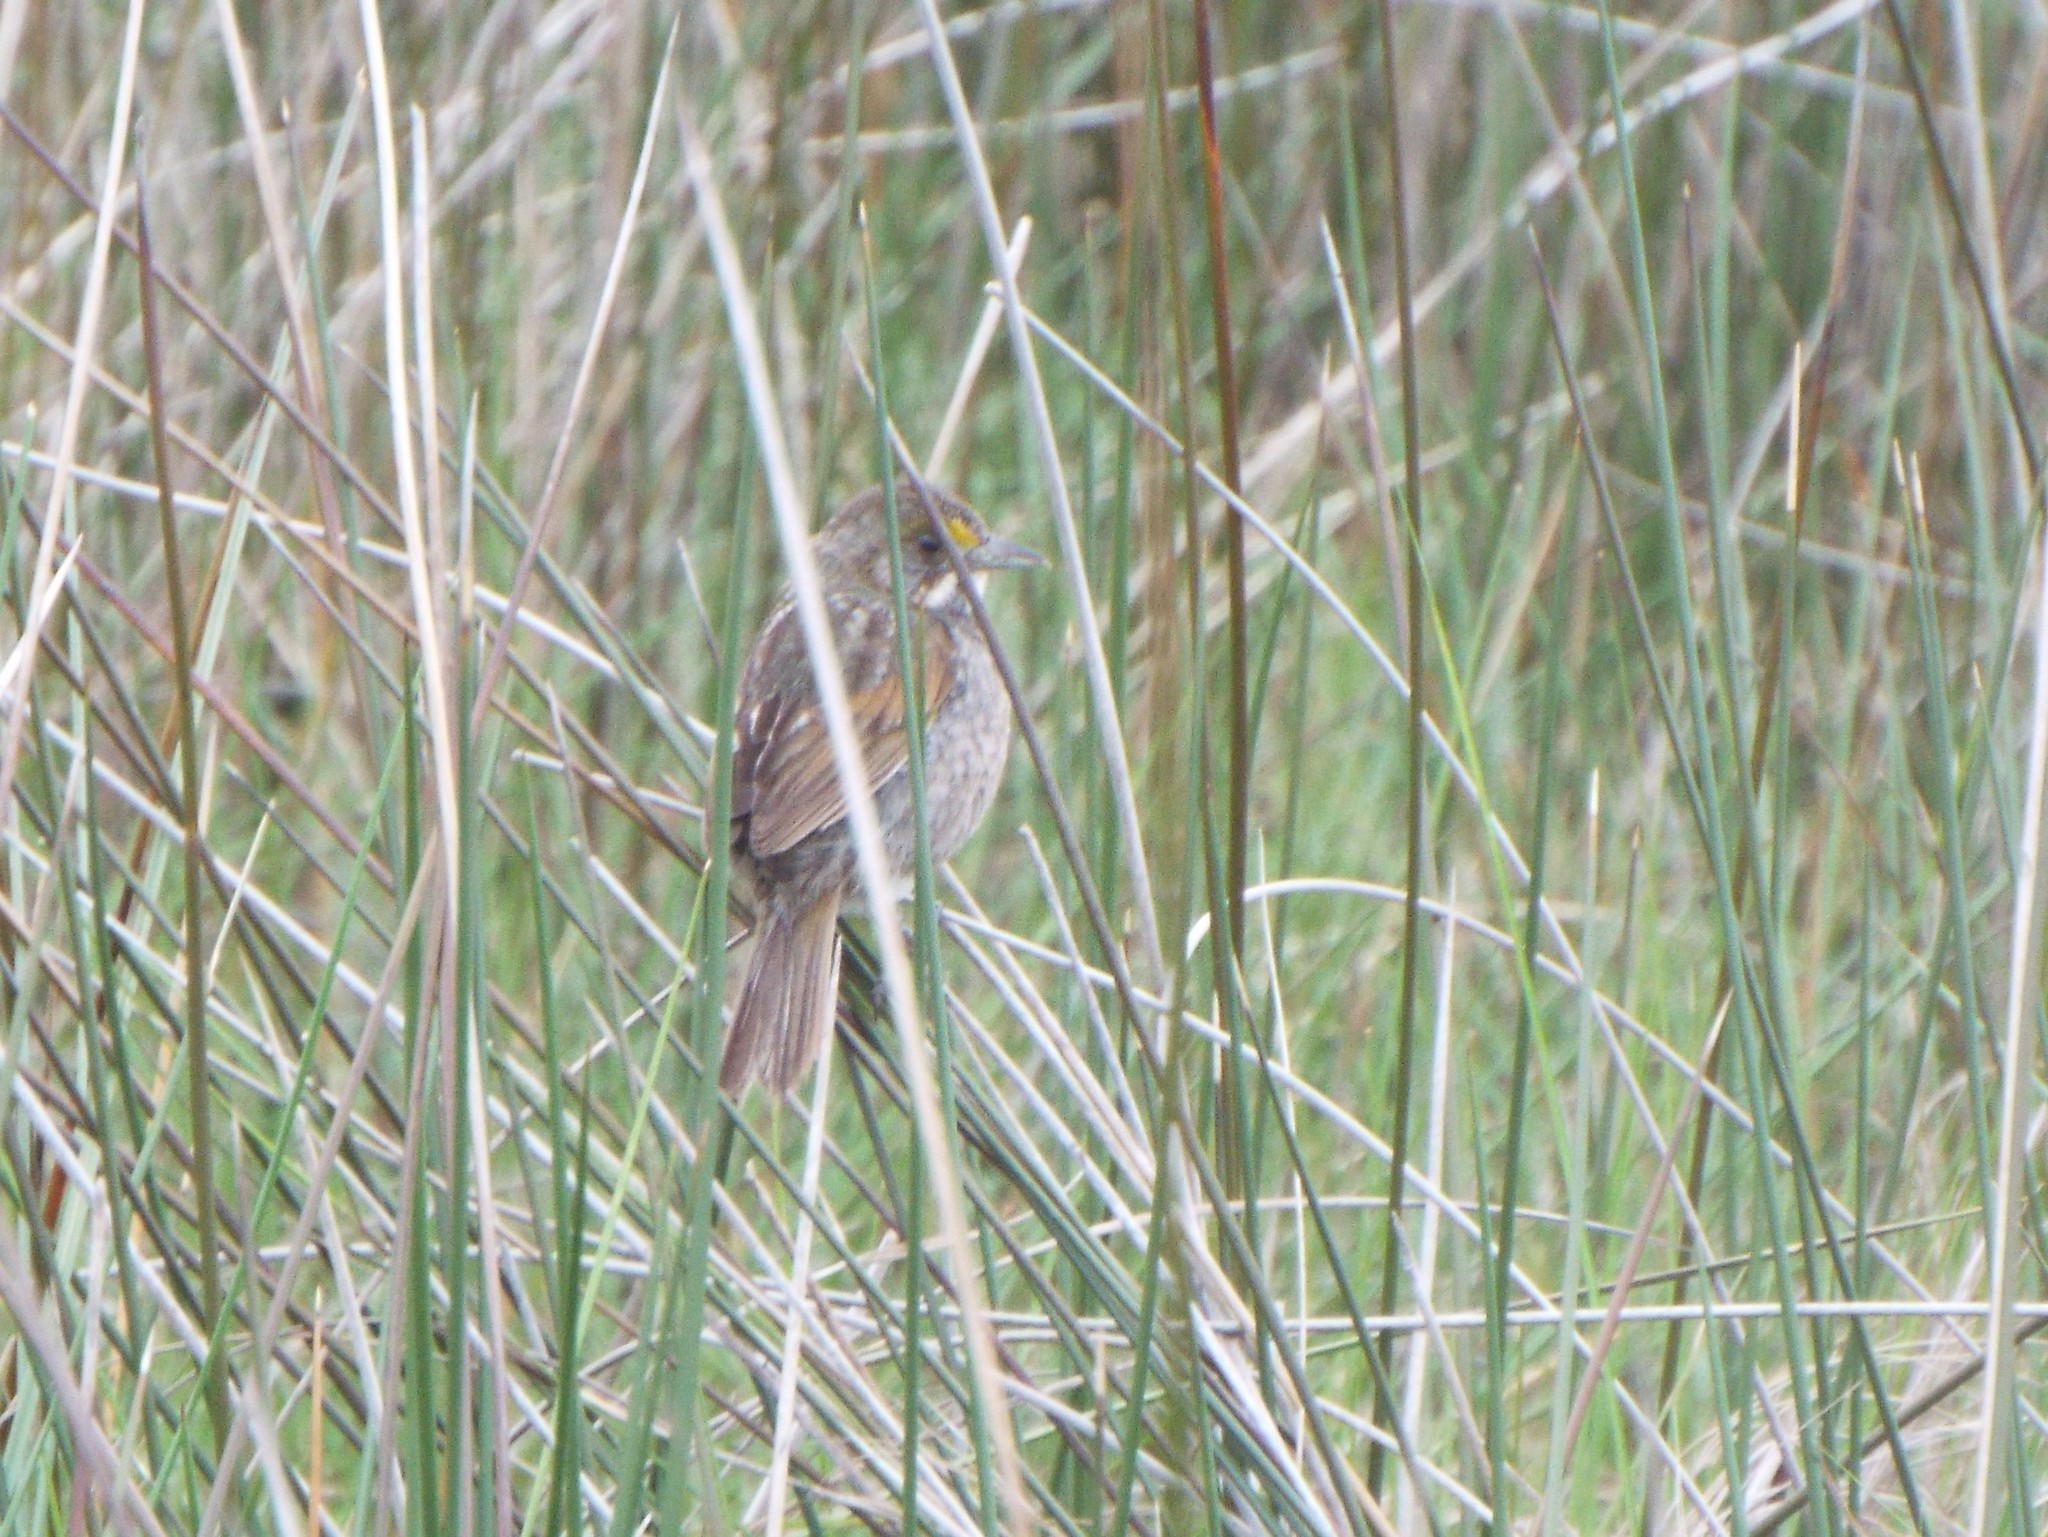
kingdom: Animalia
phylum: Chordata
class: Aves
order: Passeriformes
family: Passerellidae
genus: Ammospiza
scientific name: Ammospiza maritima
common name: Seaside sparrow
